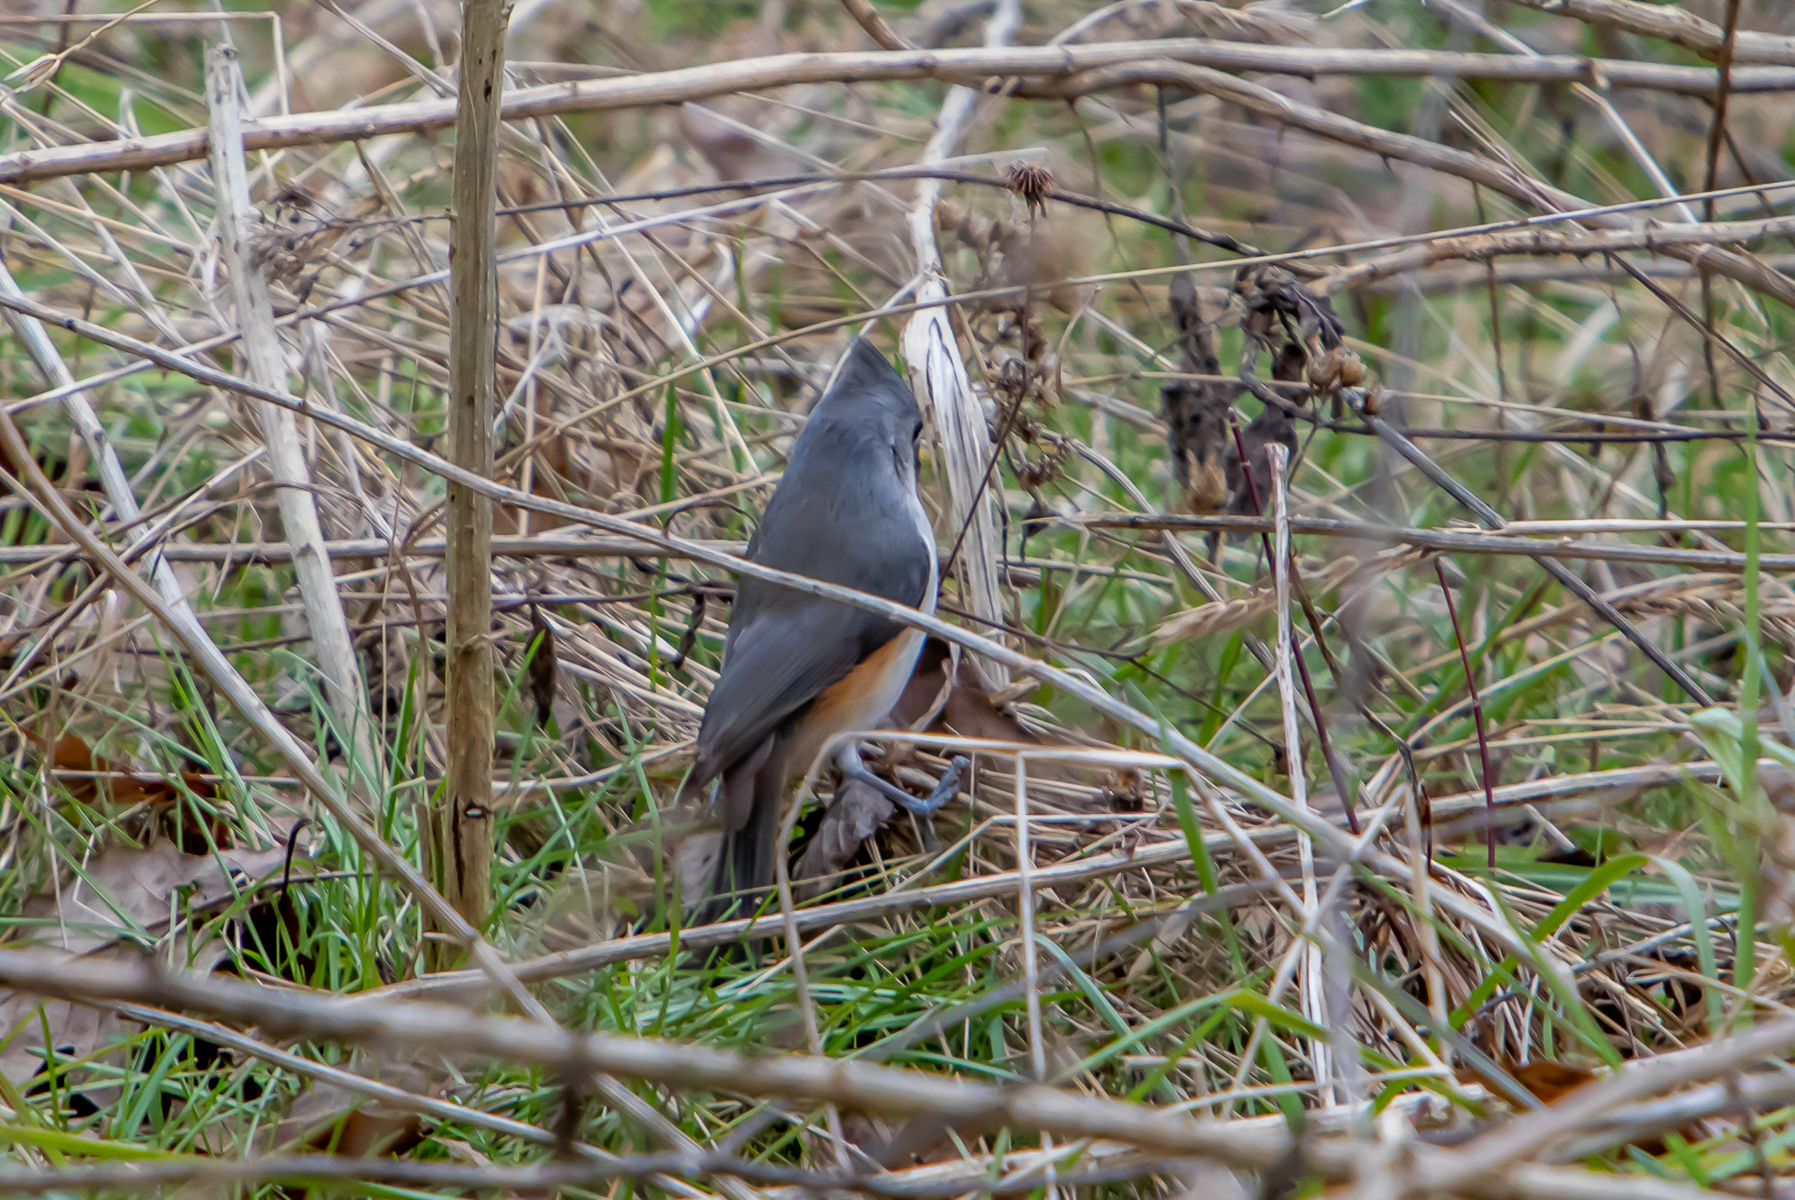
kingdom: Animalia
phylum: Chordata
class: Aves
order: Passeriformes
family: Paridae
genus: Baeolophus
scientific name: Baeolophus bicolor
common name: Tufted titmouse
